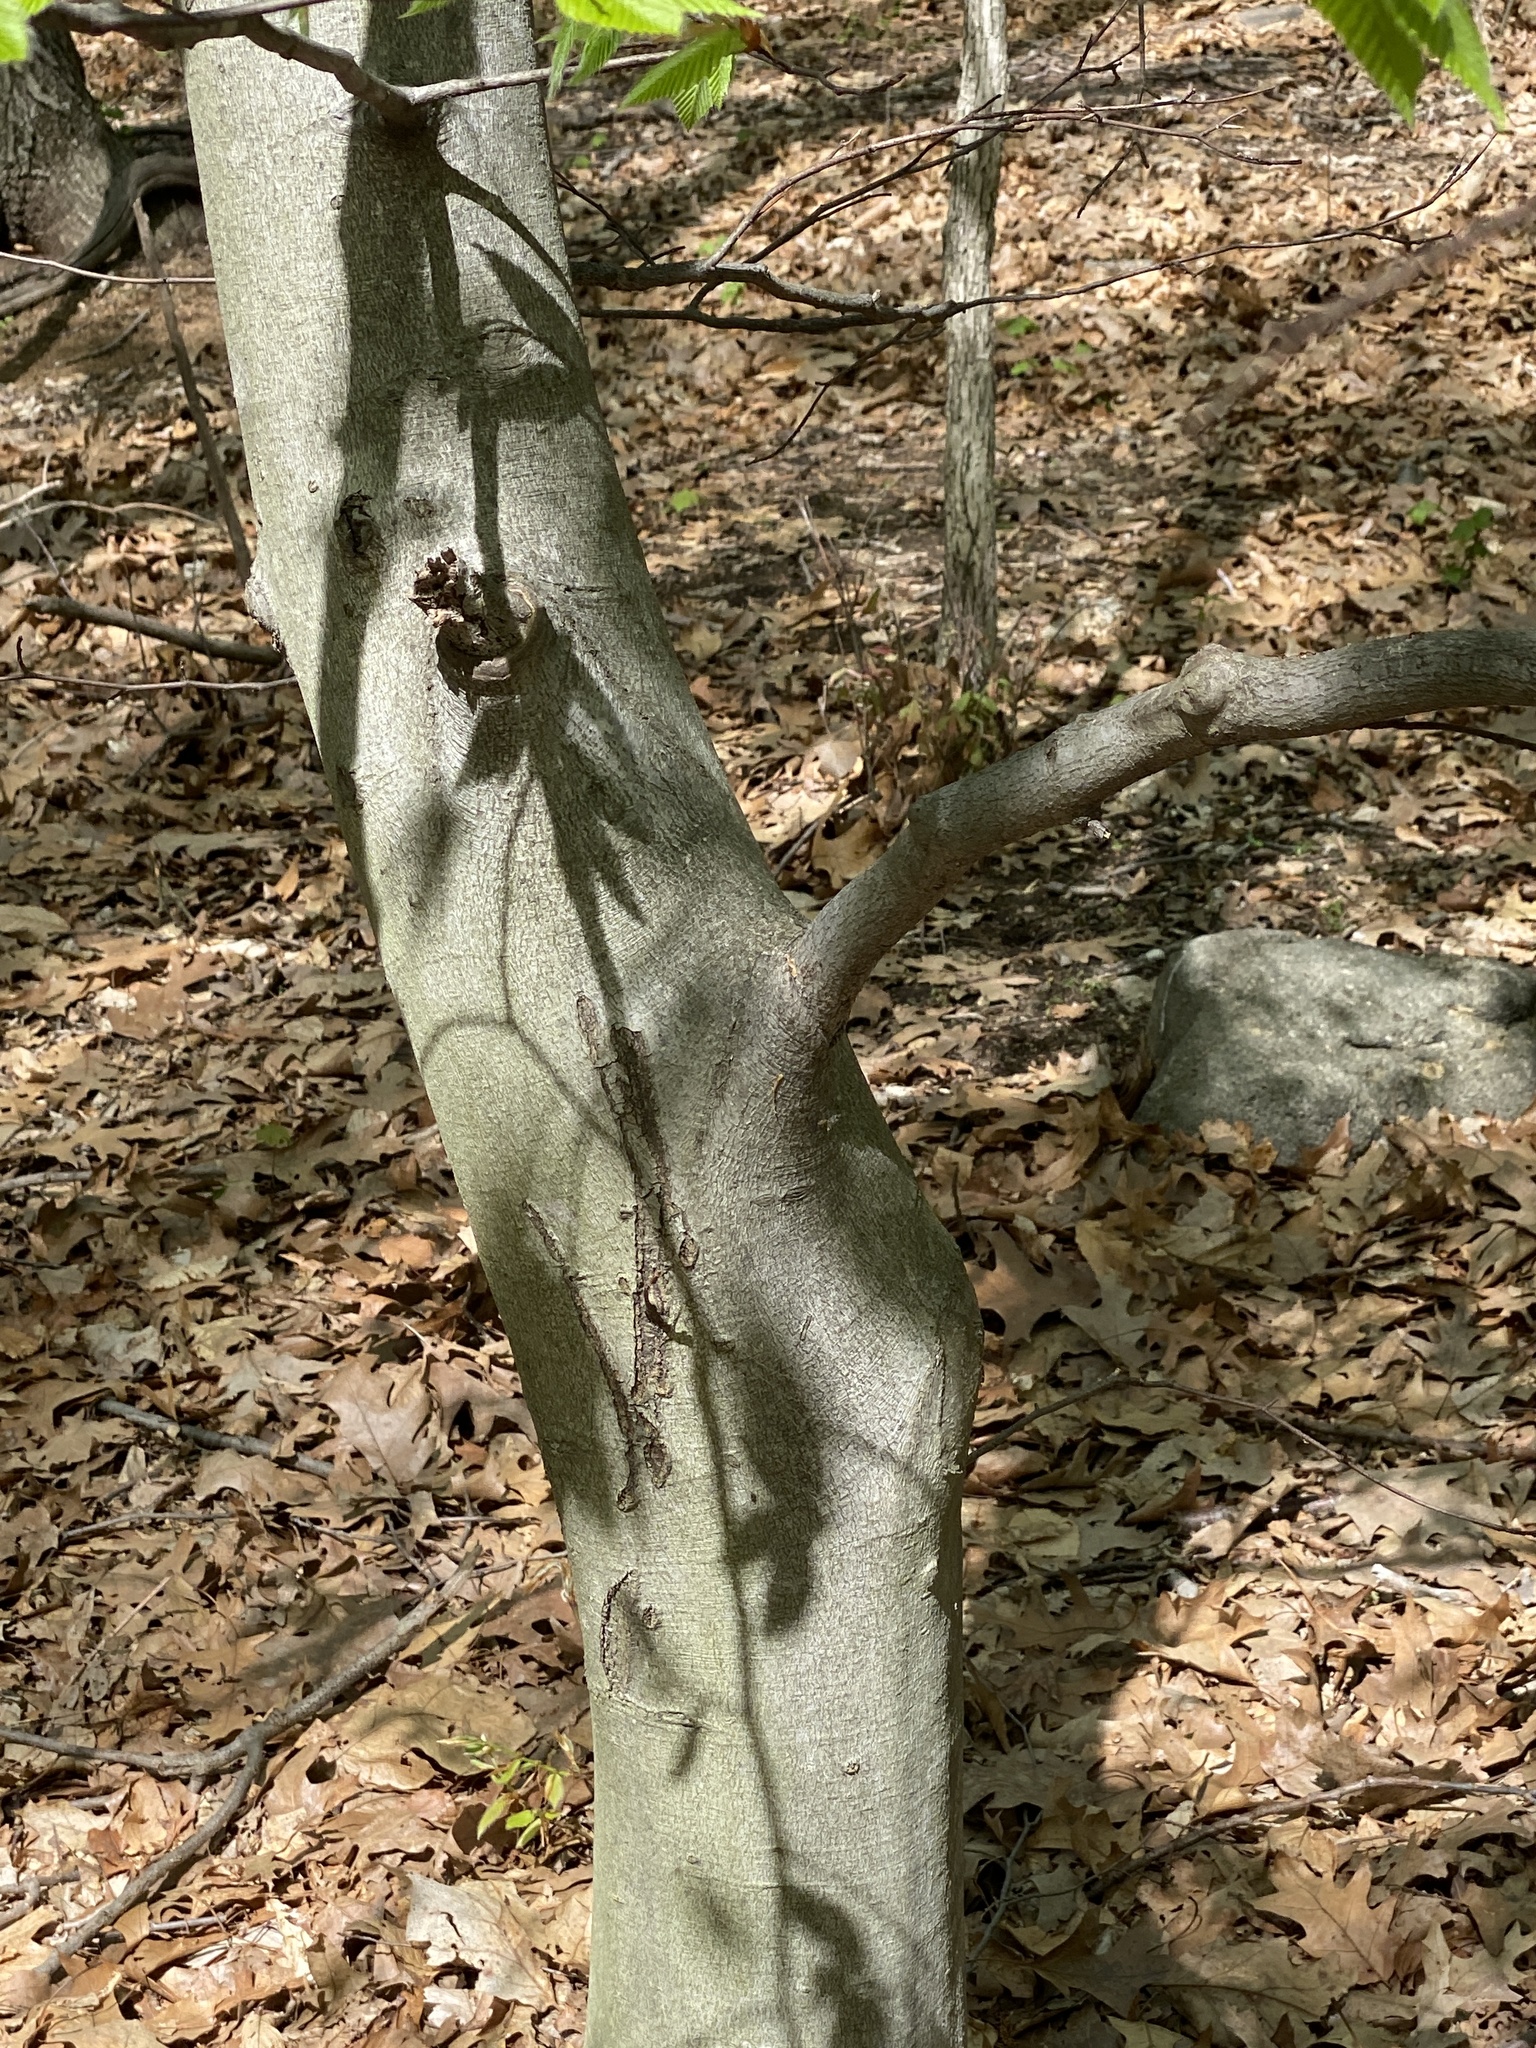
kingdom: Plantae
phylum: Tracheophyta
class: Magnoliopsida
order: Fagales
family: Fagaceae
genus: Fagus
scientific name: Fagus grandifolia
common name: American beech
